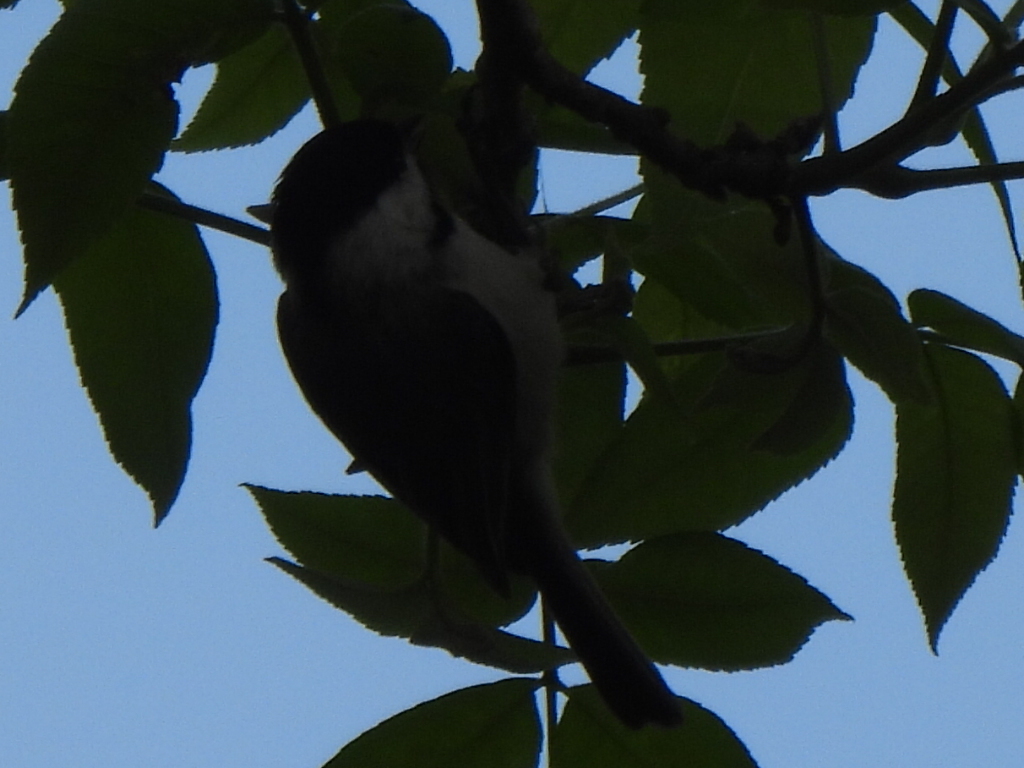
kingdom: Animalia
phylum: Chordata
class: Aves
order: Passeriformes
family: Paridae
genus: Poecile
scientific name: Poecile carolinensis
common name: Carolina chickadee
